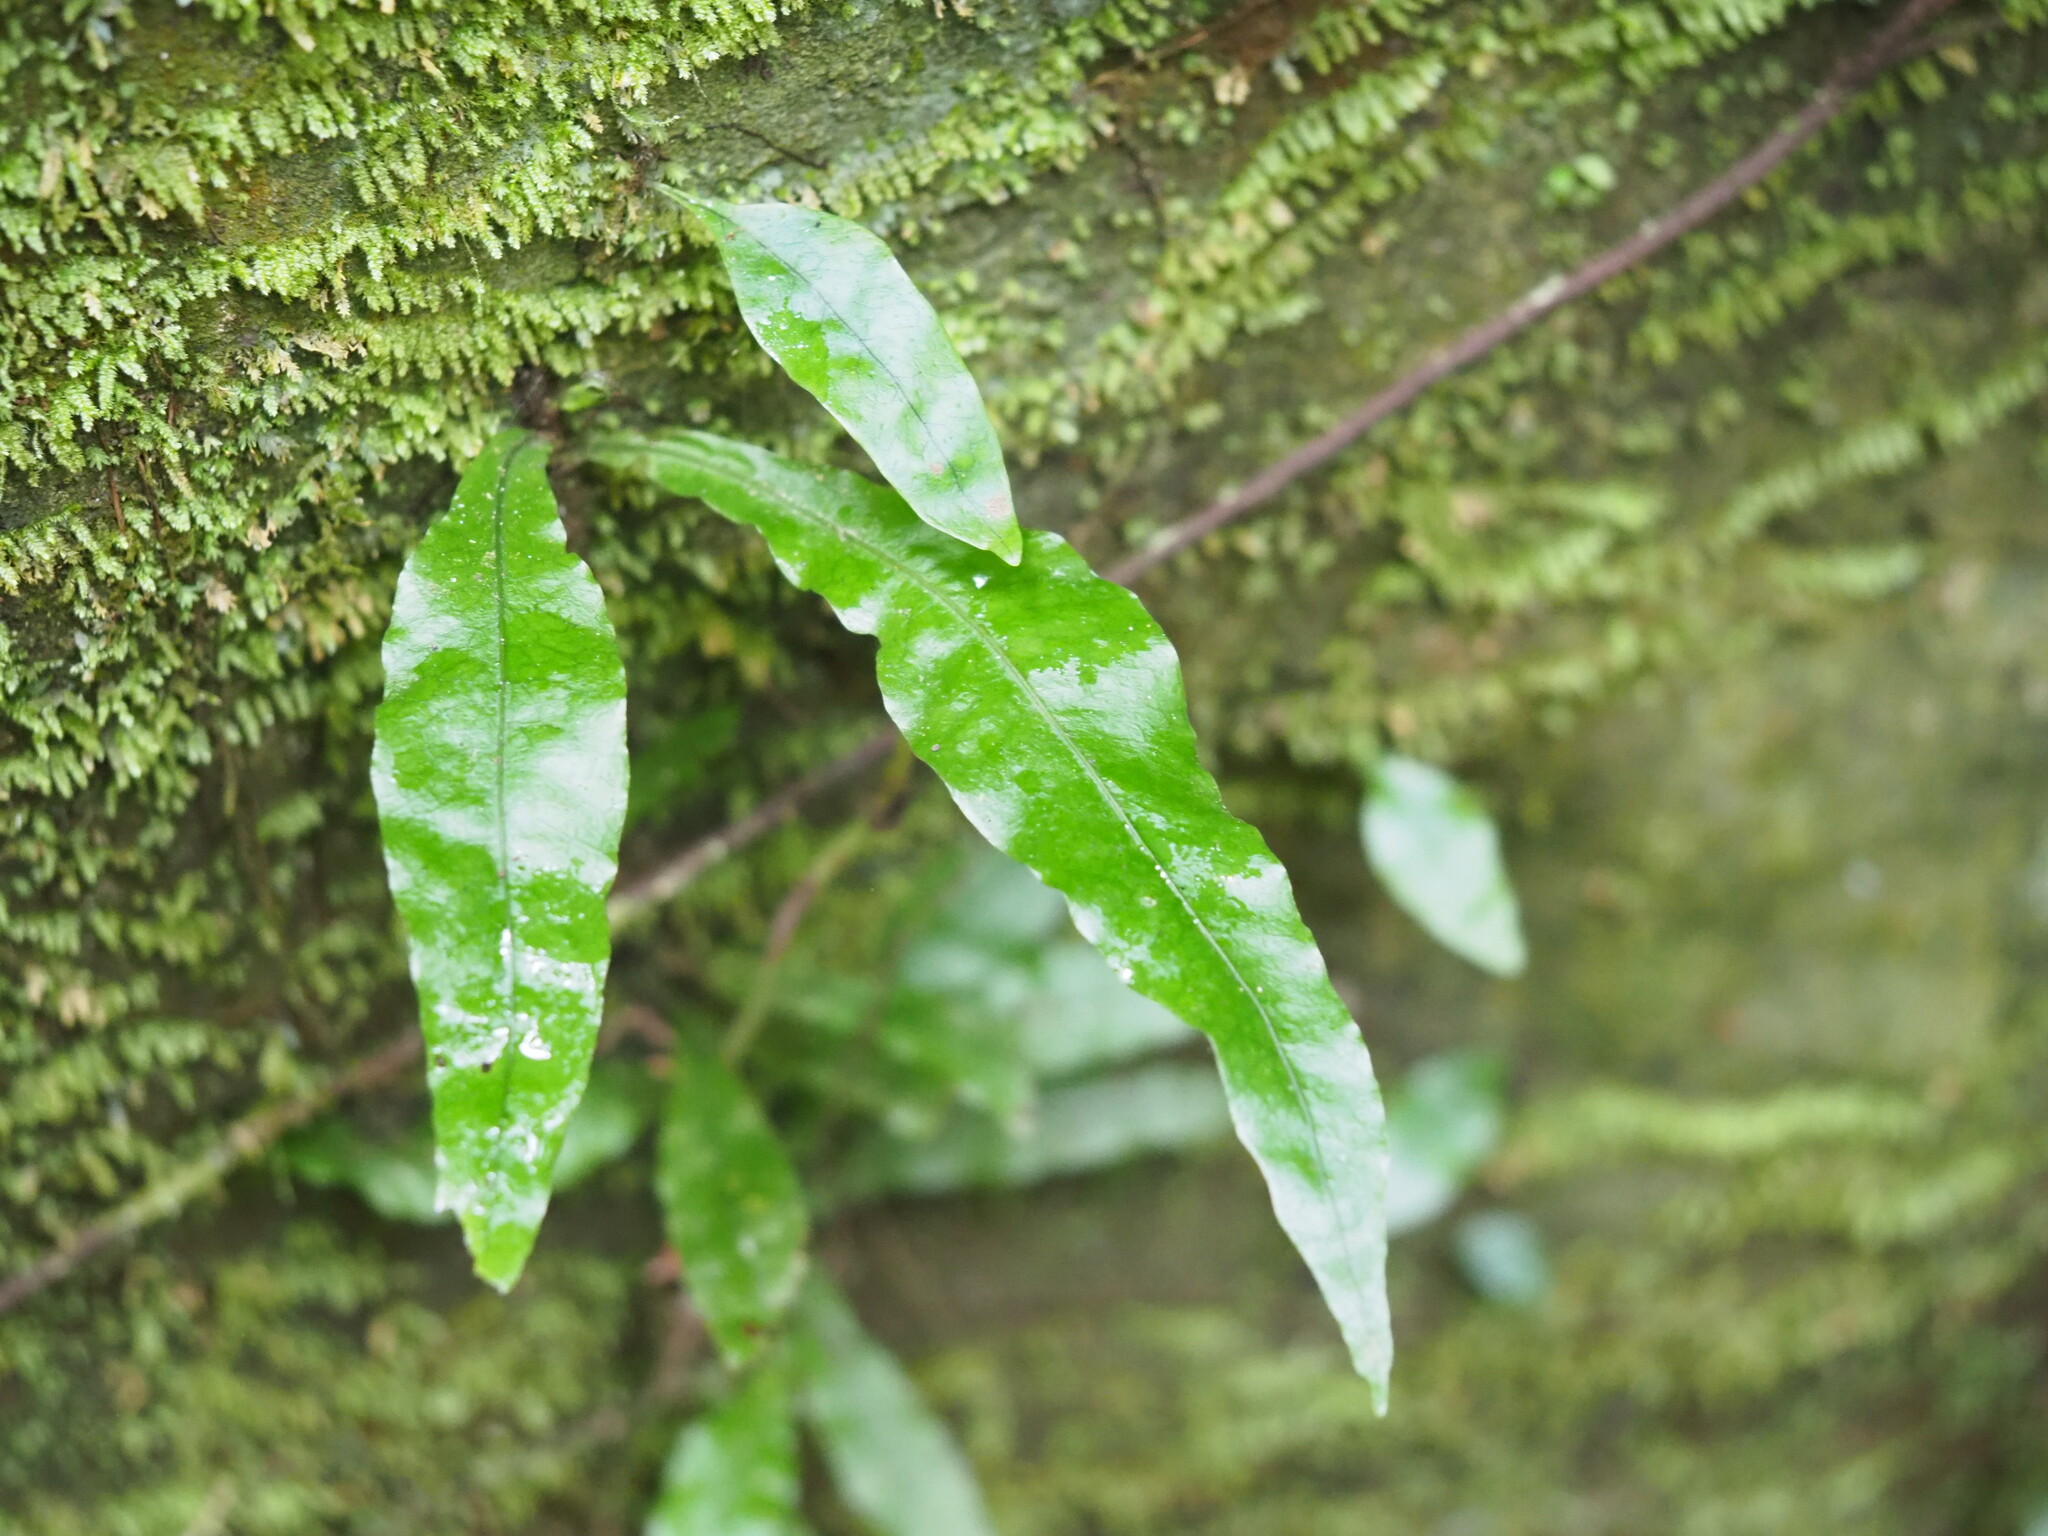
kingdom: Plantae
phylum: Tracheophyta
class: Polypodiopsida
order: Polypodiales
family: Polypodiaceae
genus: Leptochilus
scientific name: Leptochilus wrightii
